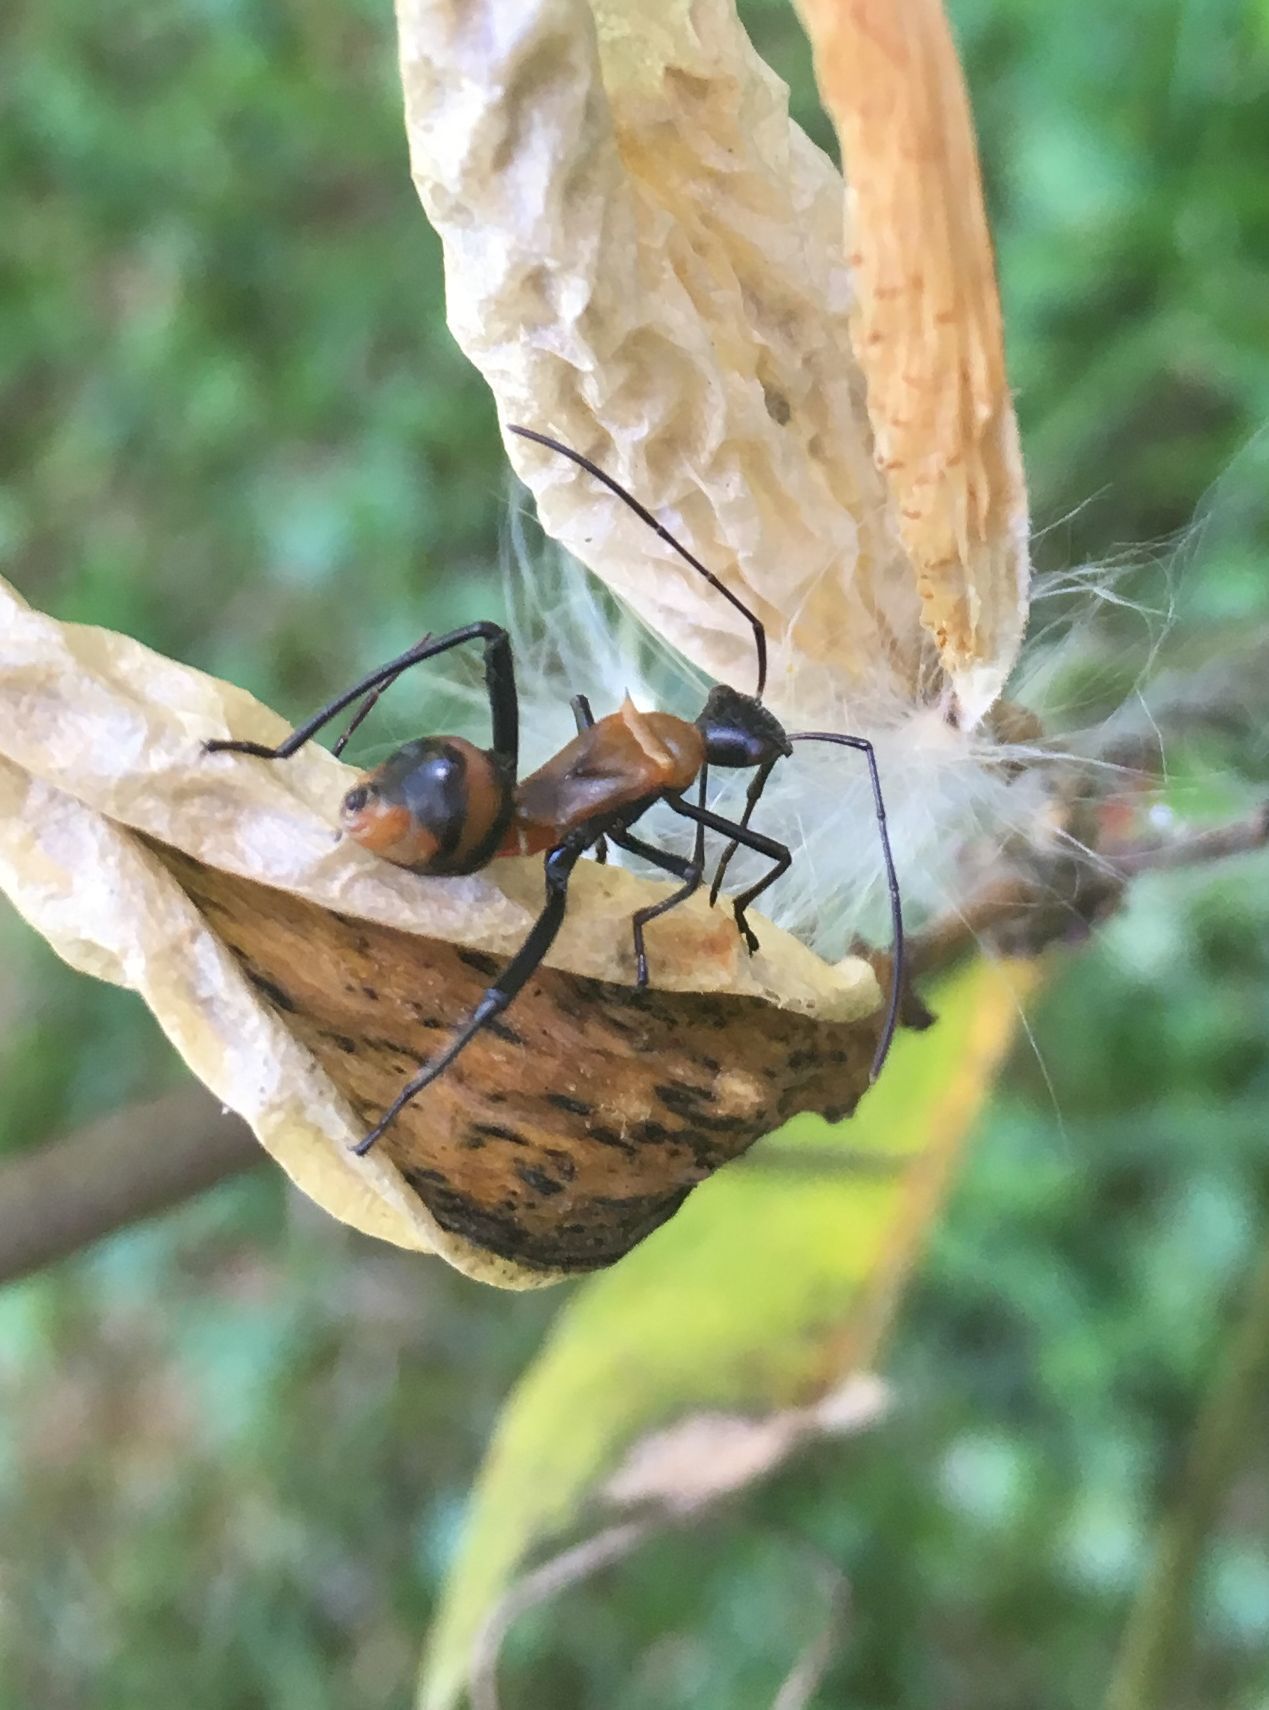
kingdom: Animalia
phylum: Arthropoda
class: Insecta
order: Hemiptera
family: Alydidae
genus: Hyalymenus
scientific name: Hyalymenus tarsatus
